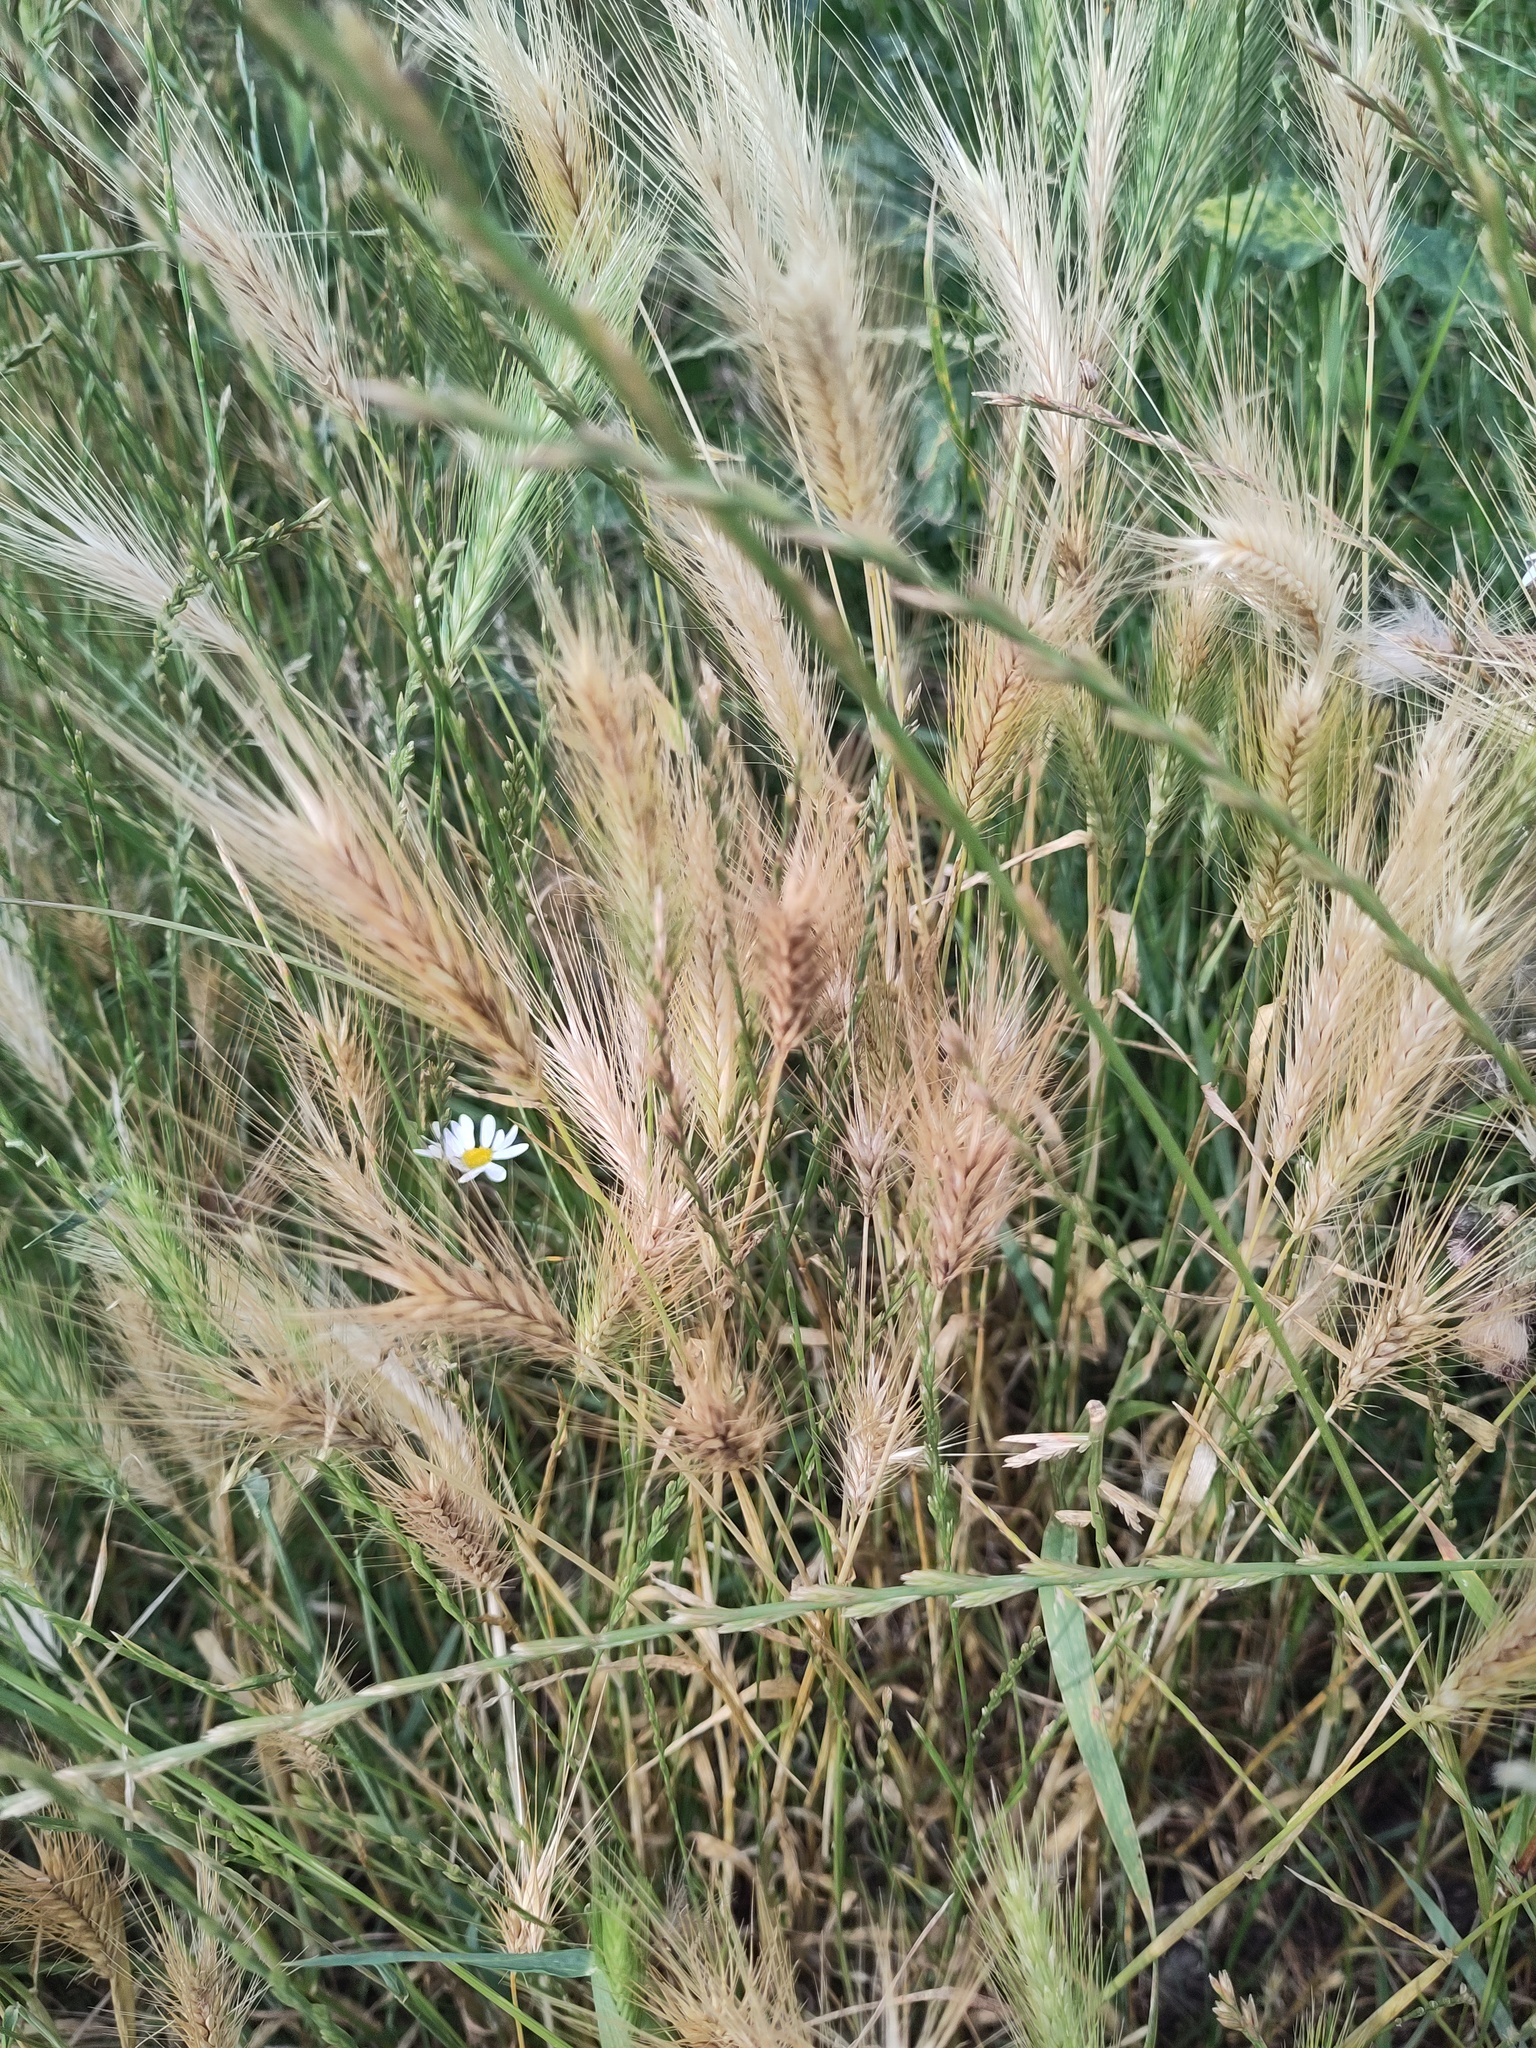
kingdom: Plantae
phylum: Tracheophyta
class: Liliopsida
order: Poales
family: Poaceae
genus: Hordeum
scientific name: Hordeum murinum
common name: Wall barley
